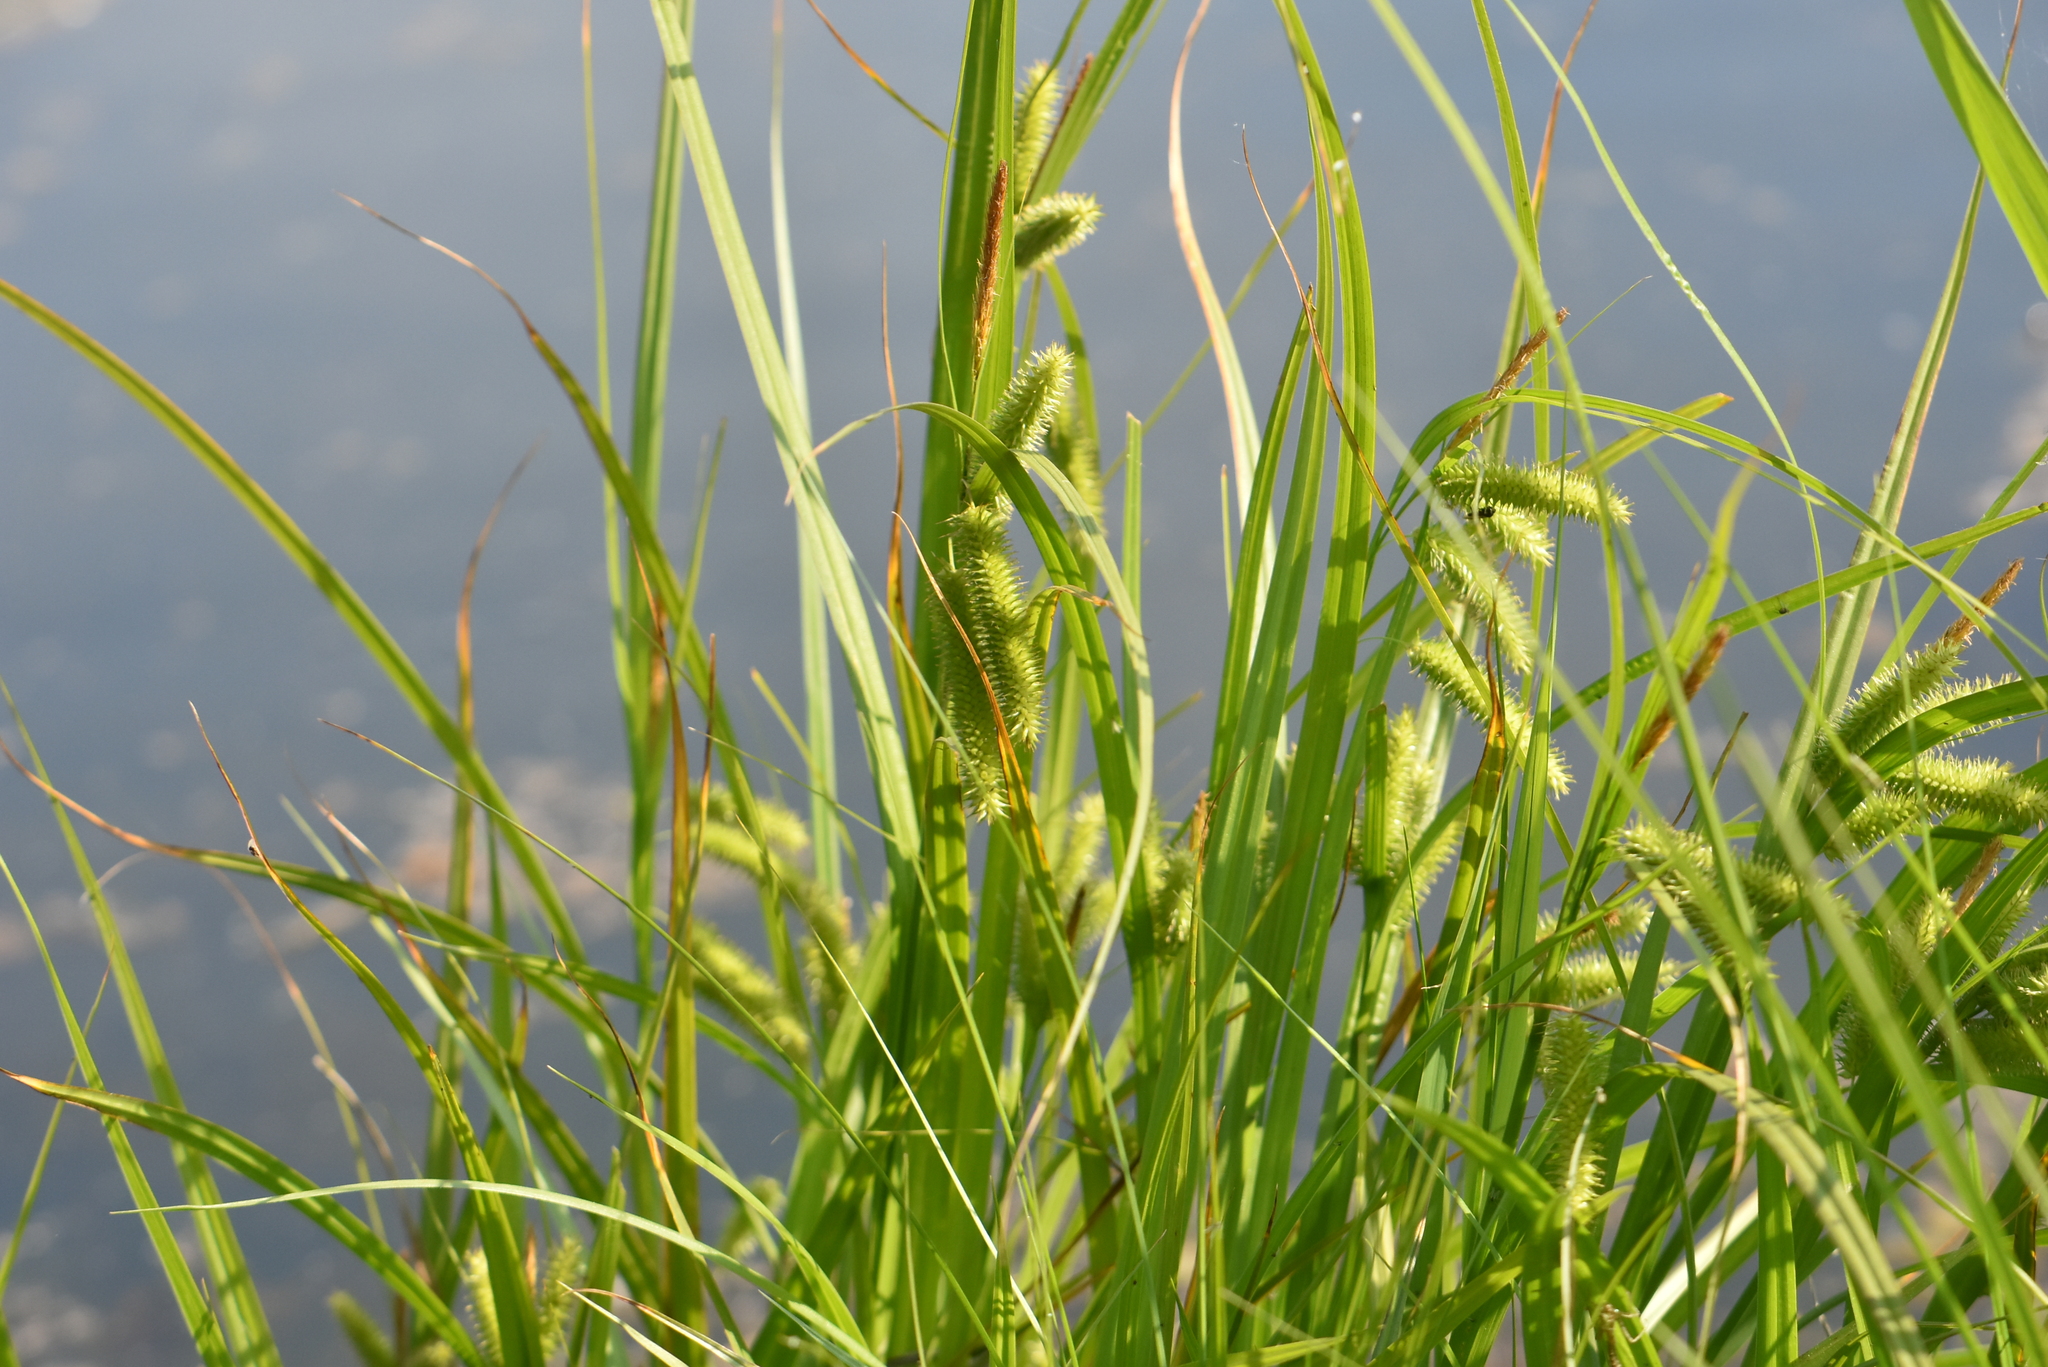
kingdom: Plantae
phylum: Tracheophyta
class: Liliopsida
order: Poales
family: Cyperaceae
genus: Carex
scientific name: Carex pseudocyperus
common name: Cyperus sedge
